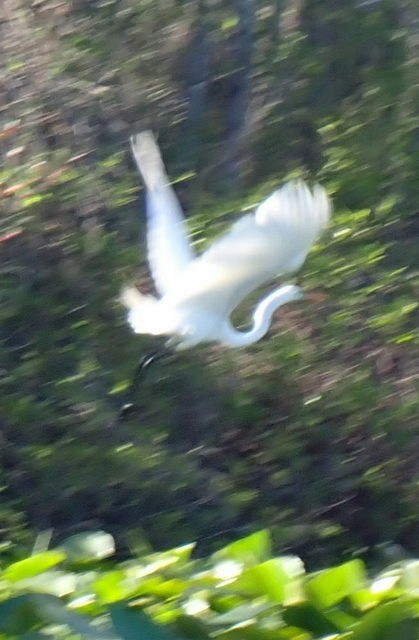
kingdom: Animalia
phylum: Chordata
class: Aves
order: Pelecaniformes
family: Ardeidae
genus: Ardea
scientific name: Ardea alba
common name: Great egret
